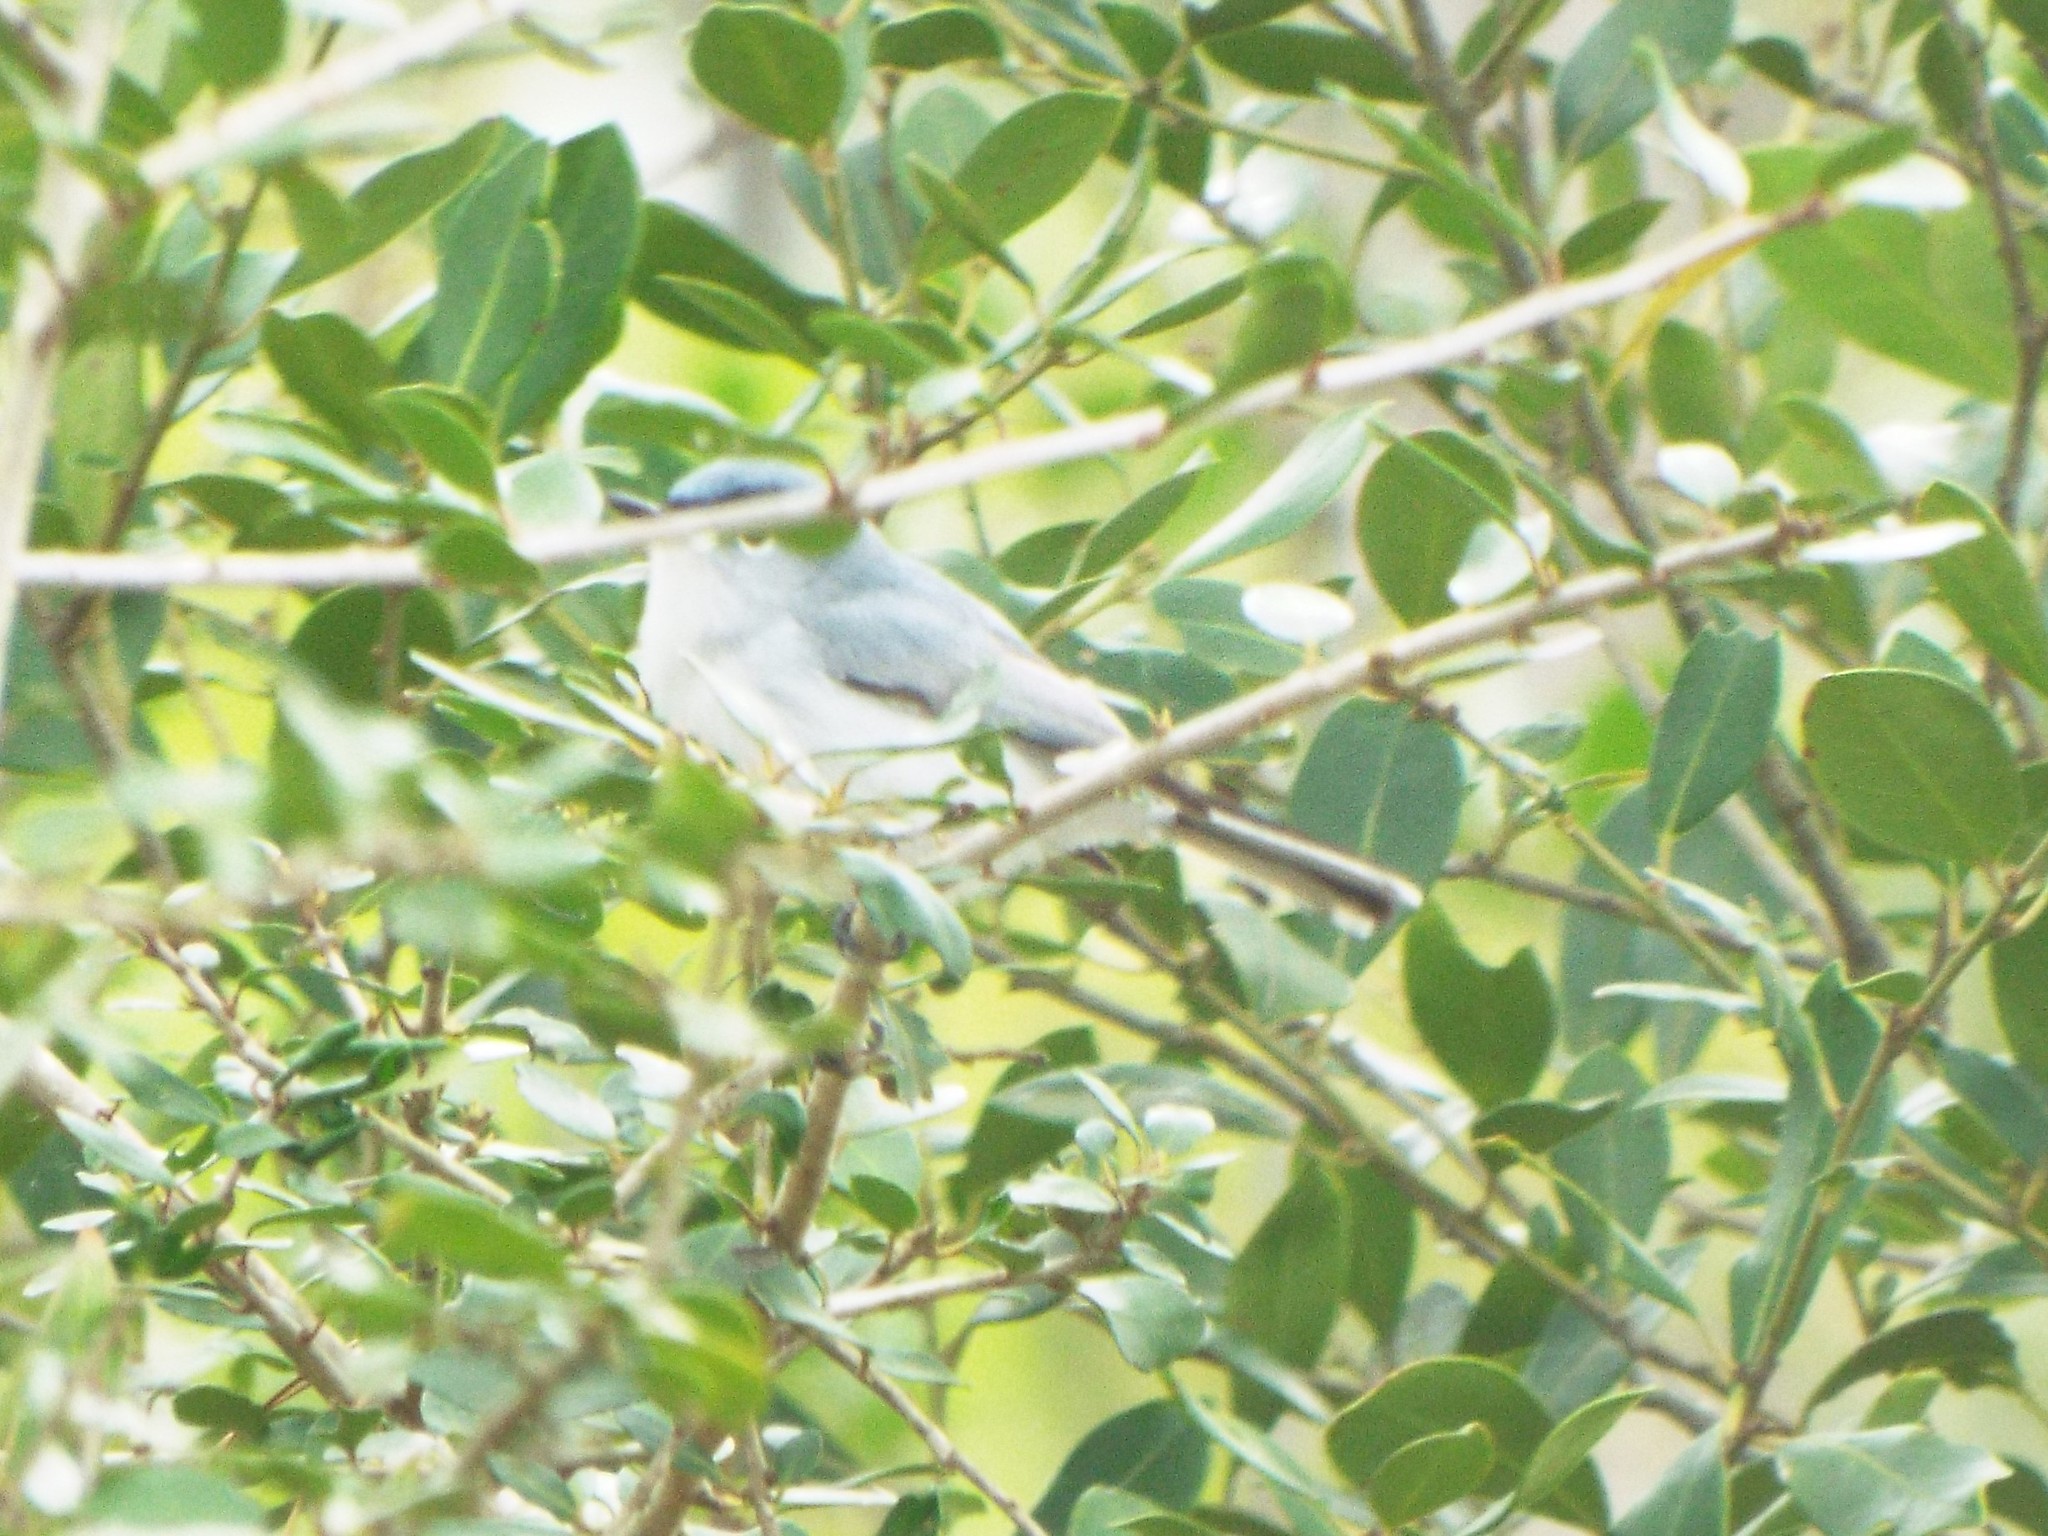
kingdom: Animalia
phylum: Chordata
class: Aves
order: Passeriformes
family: Polioptilidae
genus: Polioptila
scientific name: Polioptila caerulea
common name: Blue-gray gnatcatcher
